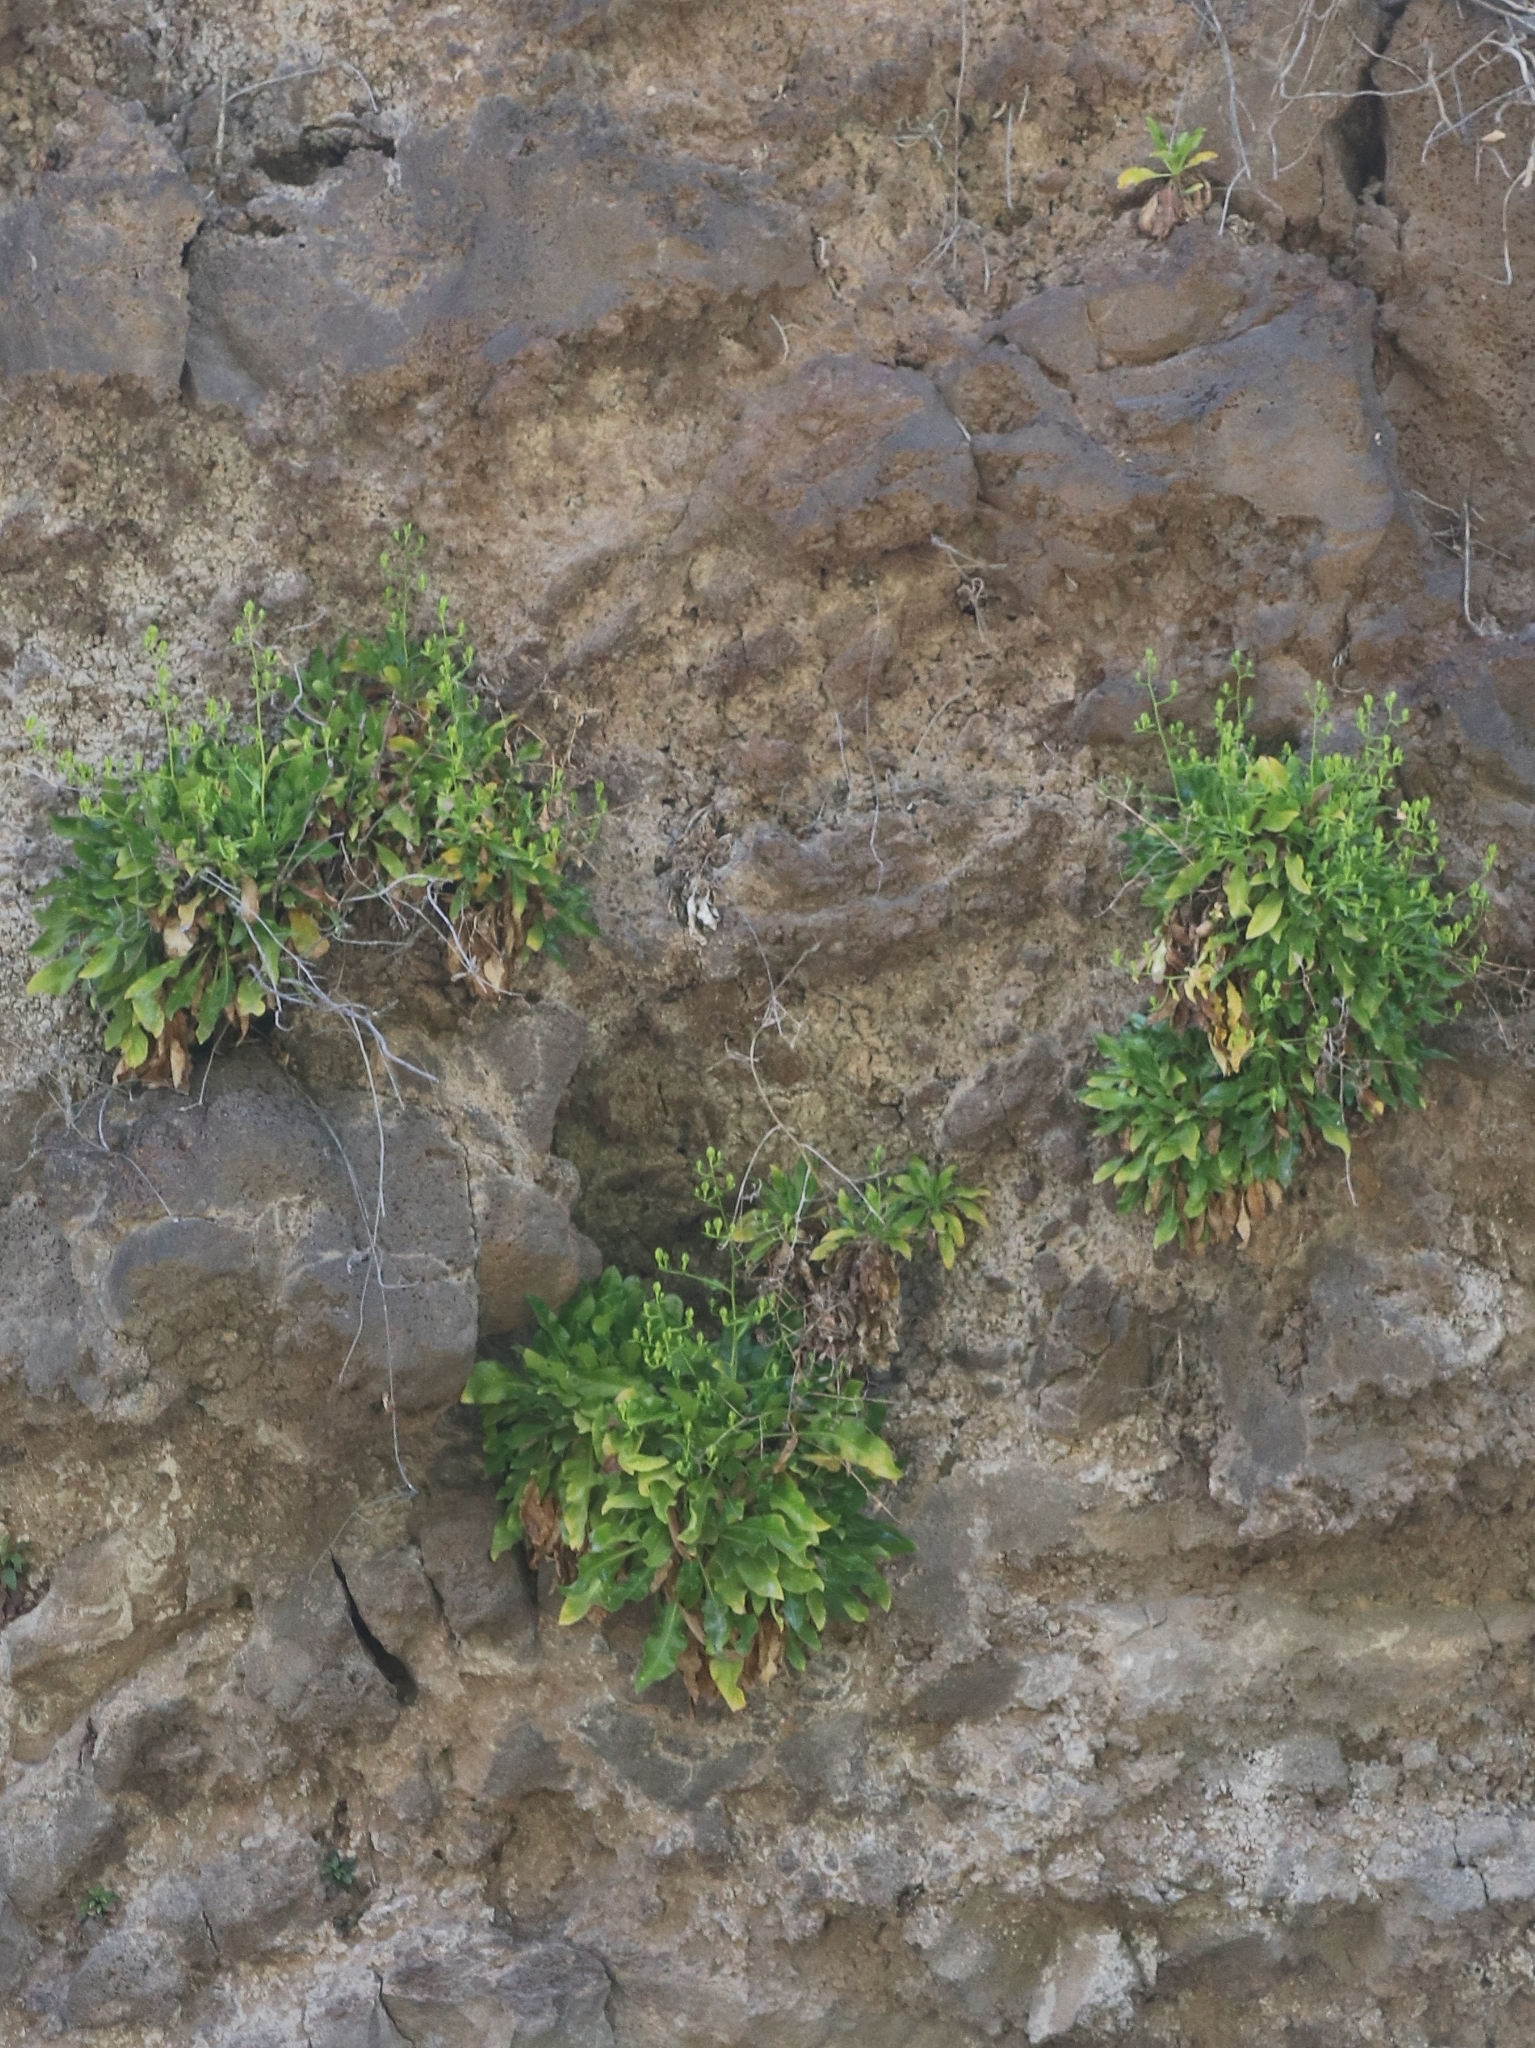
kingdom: Plantae
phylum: Tracheophyta
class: Magnoliopsida
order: Asterales
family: Campanulaceae
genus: Musschia
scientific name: Musschia aurea
